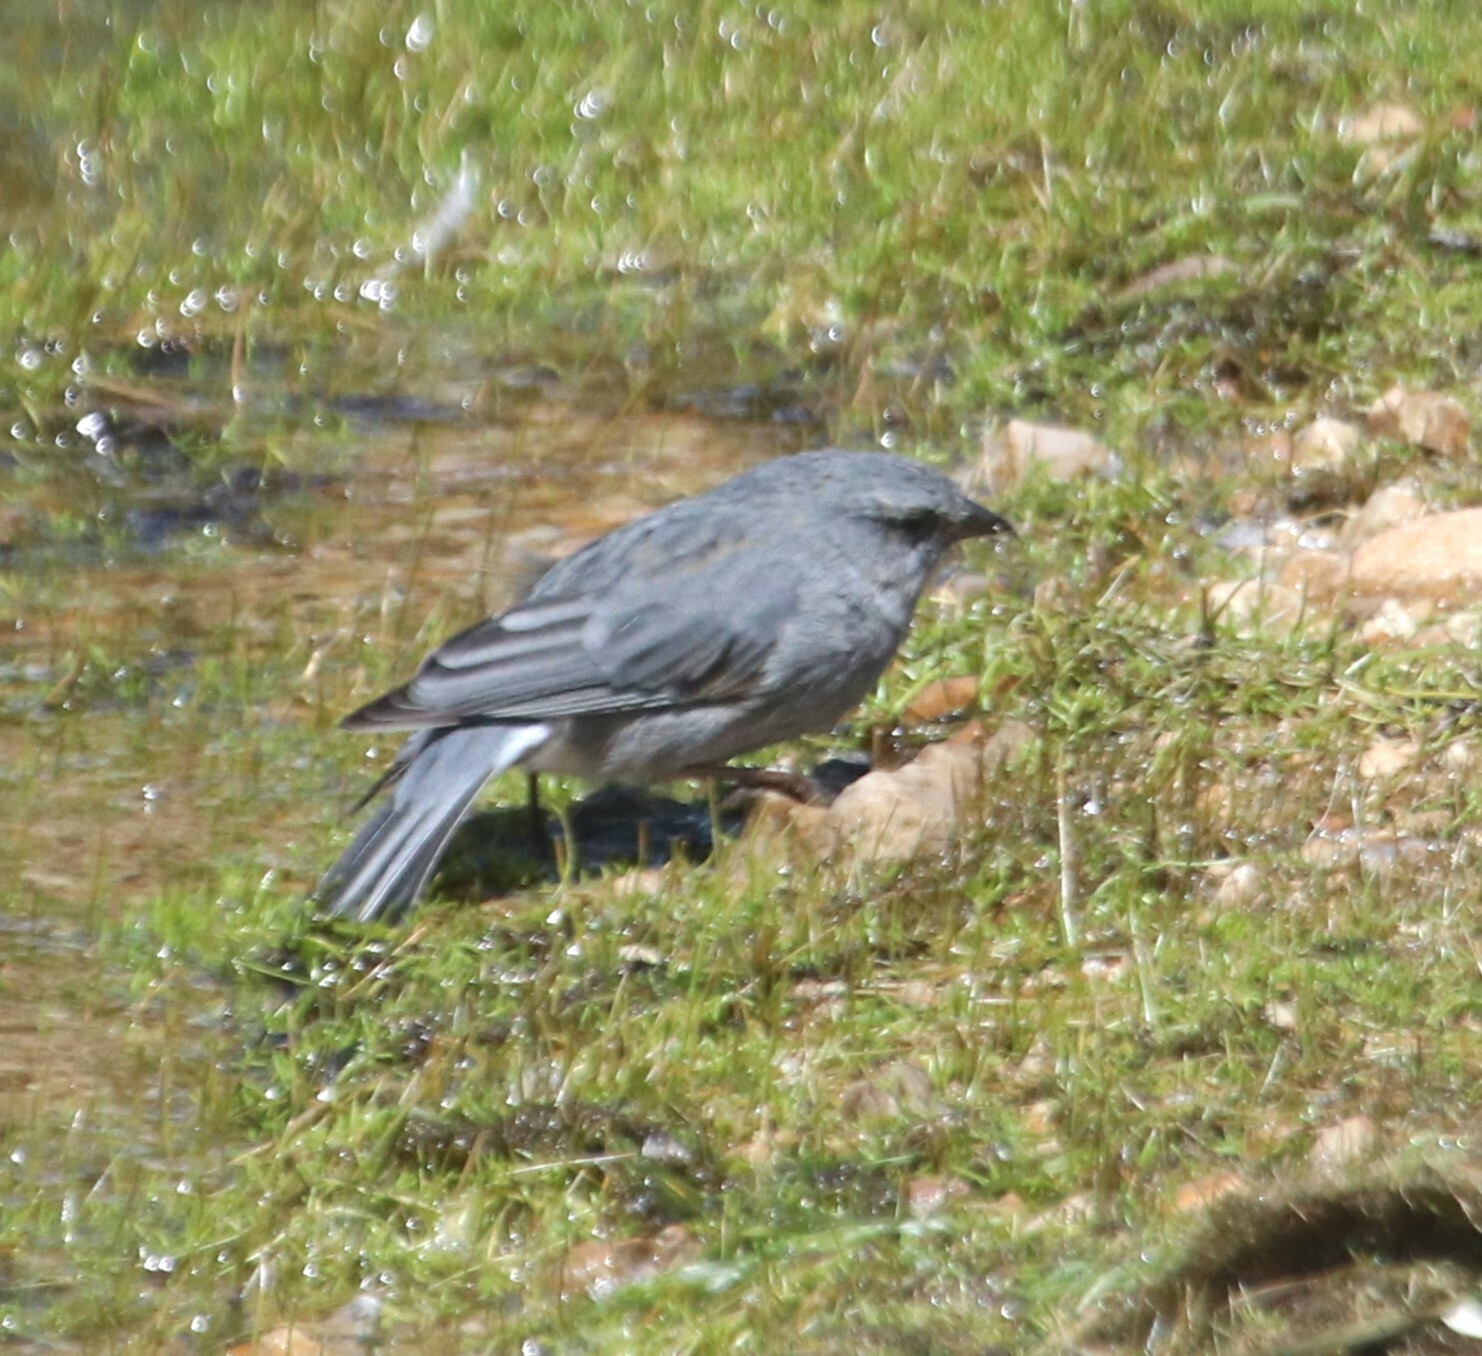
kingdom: Animalia
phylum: Chordata
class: Aves
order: Passeriformes
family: Thraupidae
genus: Geospizopsis
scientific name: Geospizopsis unicolor
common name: Plumbeous sierra-finch
